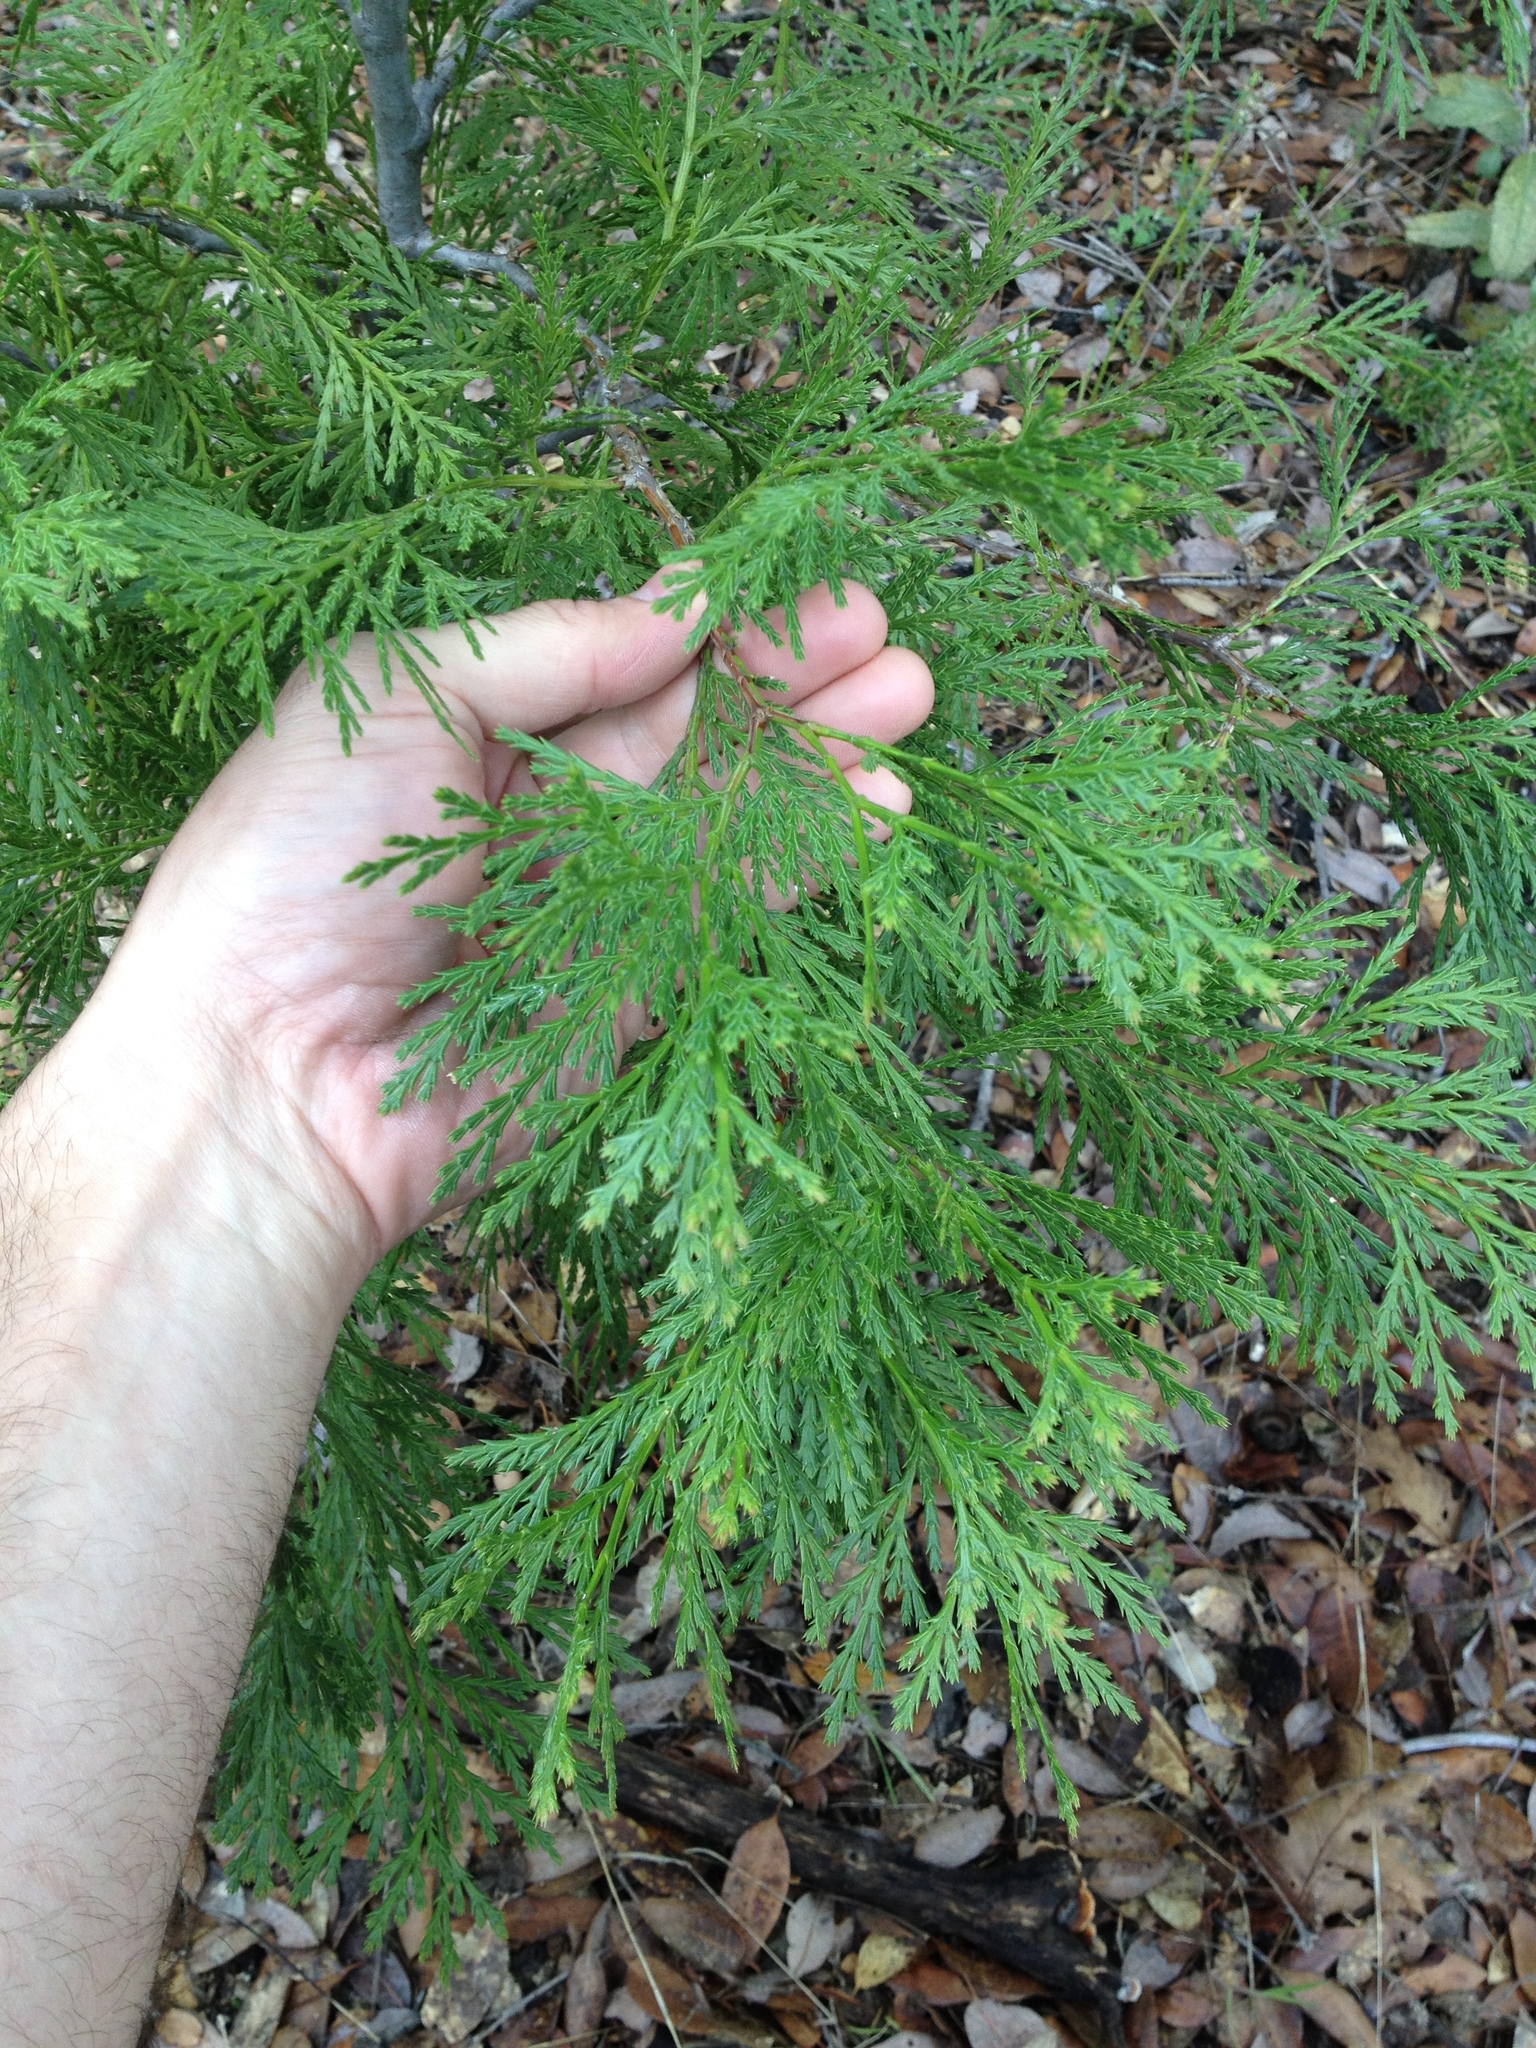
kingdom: Plantae
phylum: Tracheophyta
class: Pinopsida
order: Pinales
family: Cupressaceae
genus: Calocedrus
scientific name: Calocedrus decurrens
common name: Californian incense-cedar
